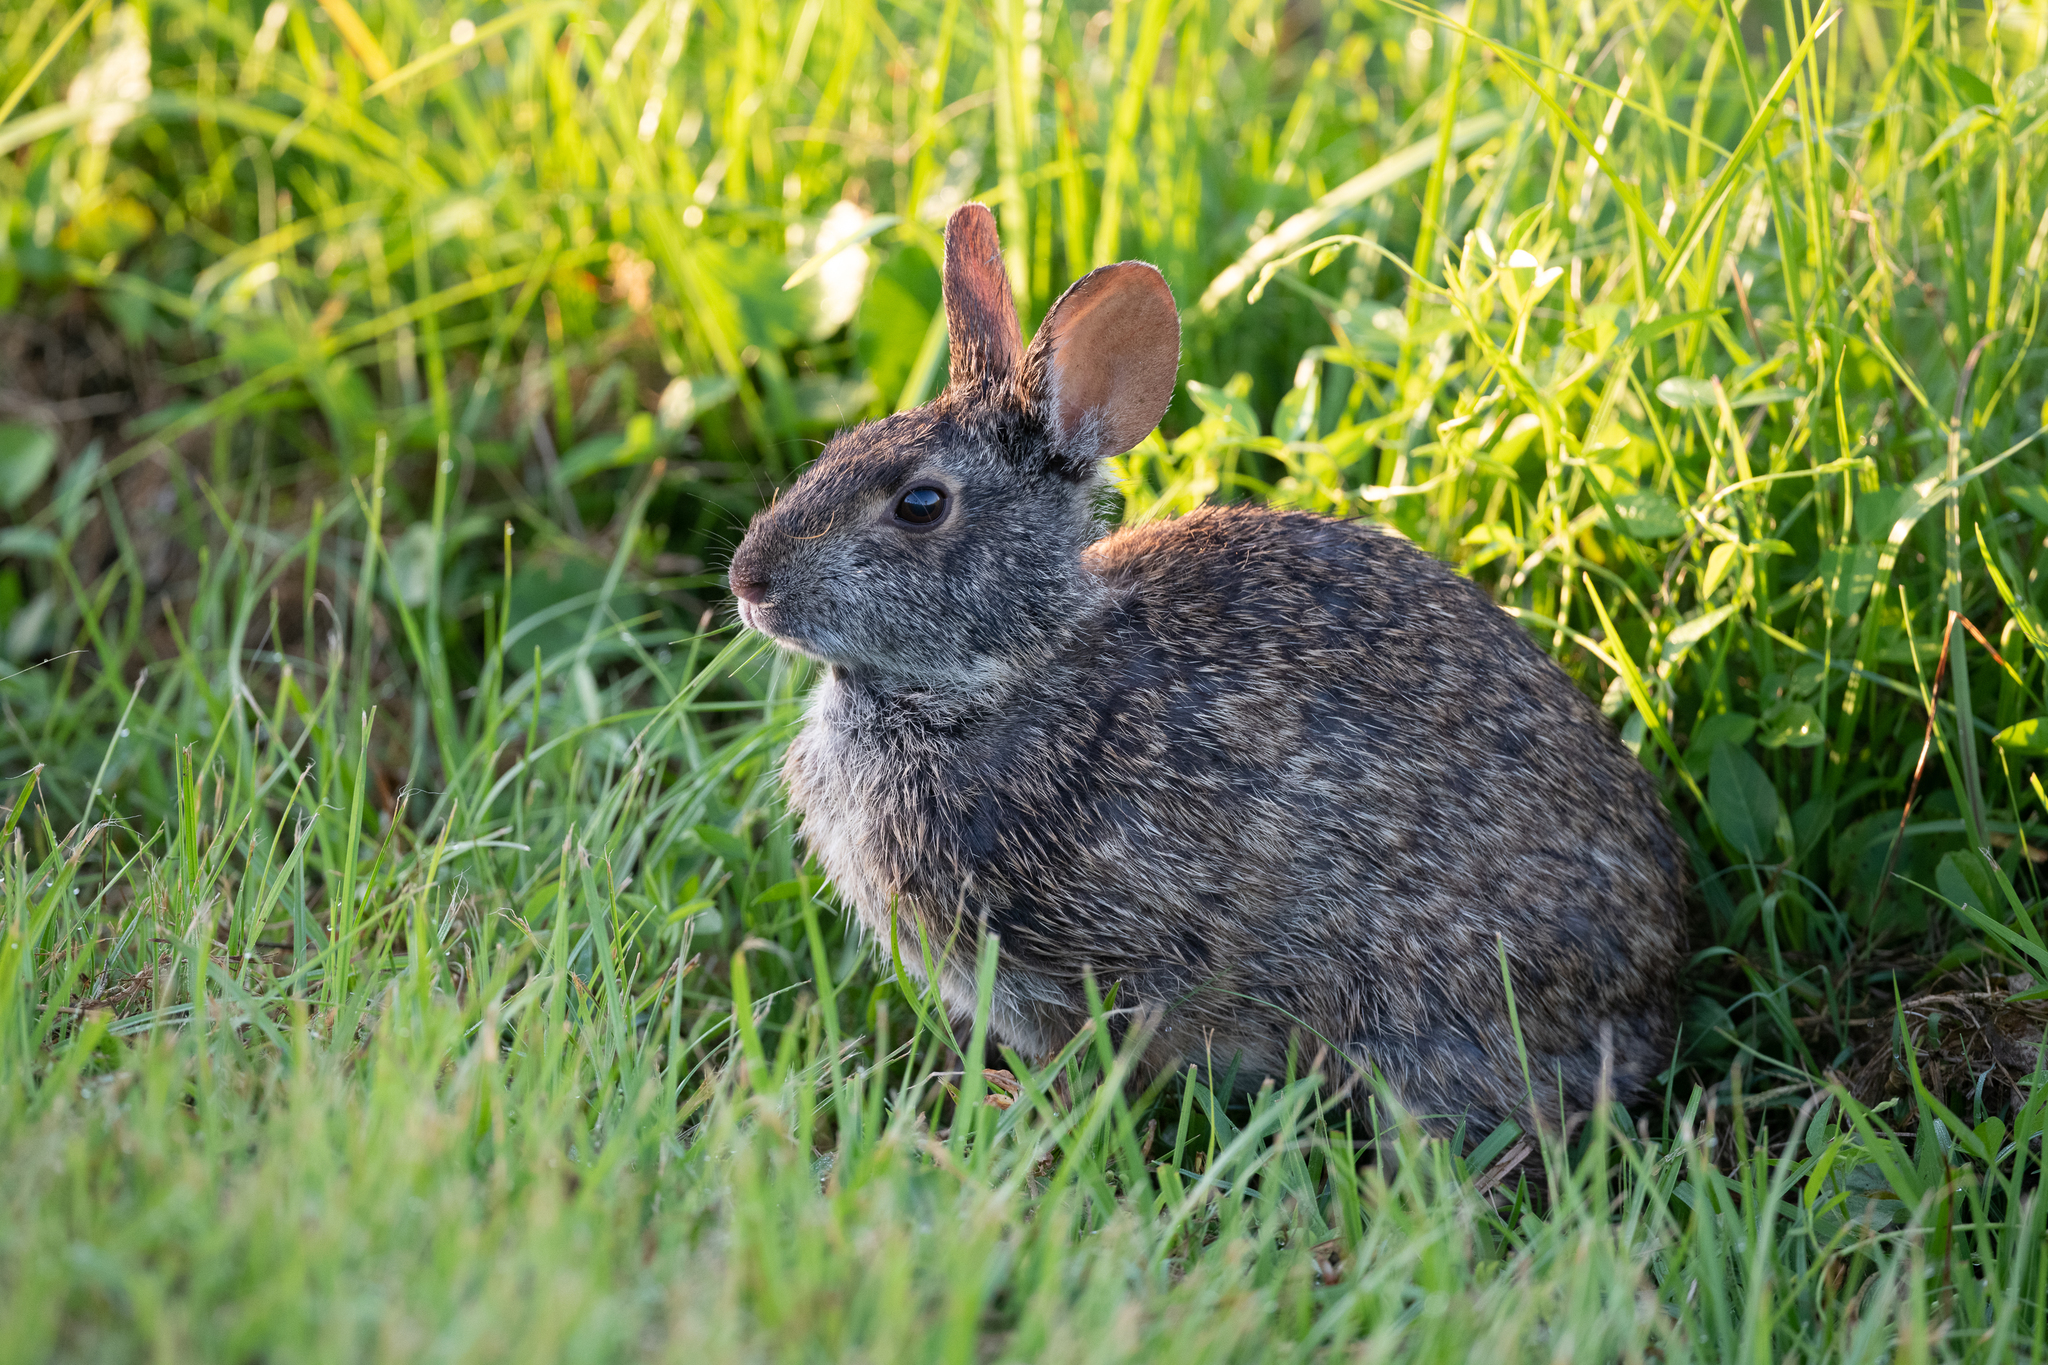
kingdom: Animalia
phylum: Chordata
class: Mammalia
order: Lagomorpha
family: Leporidae
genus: Sylvilagus
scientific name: Sylvilagus palustris
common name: Marsh rabbit
